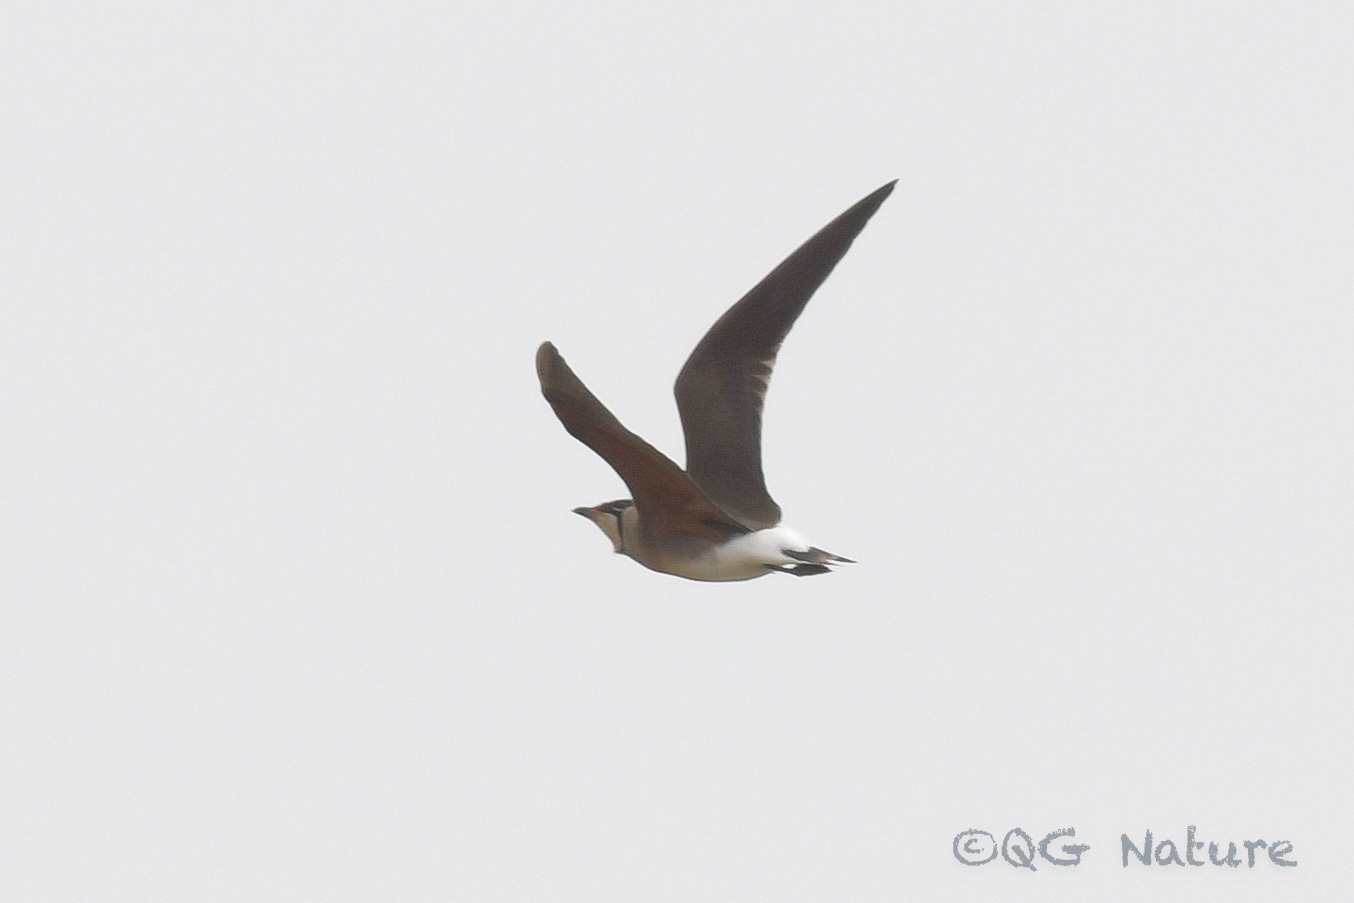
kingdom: Animalia
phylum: Chordata
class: Aves
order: Charadriiformes
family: Glareolidae
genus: Glareola
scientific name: Glareola maldivarum
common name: Oriental pratincole
